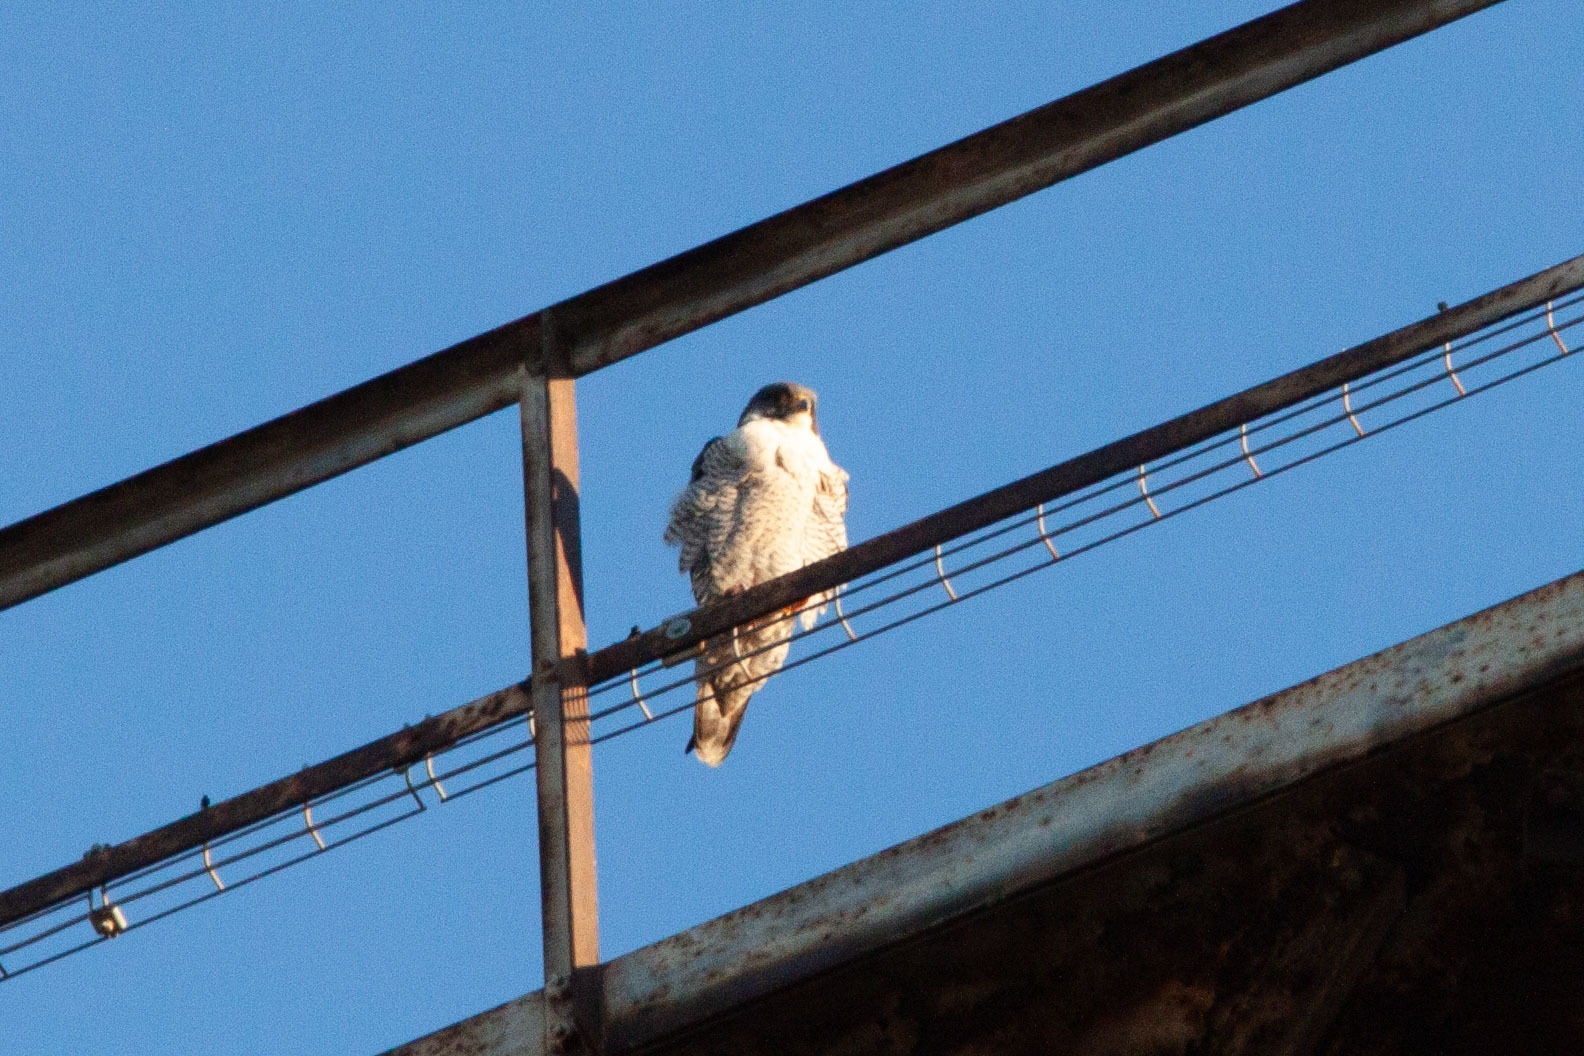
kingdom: Animalia
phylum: Chordata
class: Aves
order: Falconiformes
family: Falconidae
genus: Falco
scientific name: Falco peregrinus
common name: Peregrine falcon
